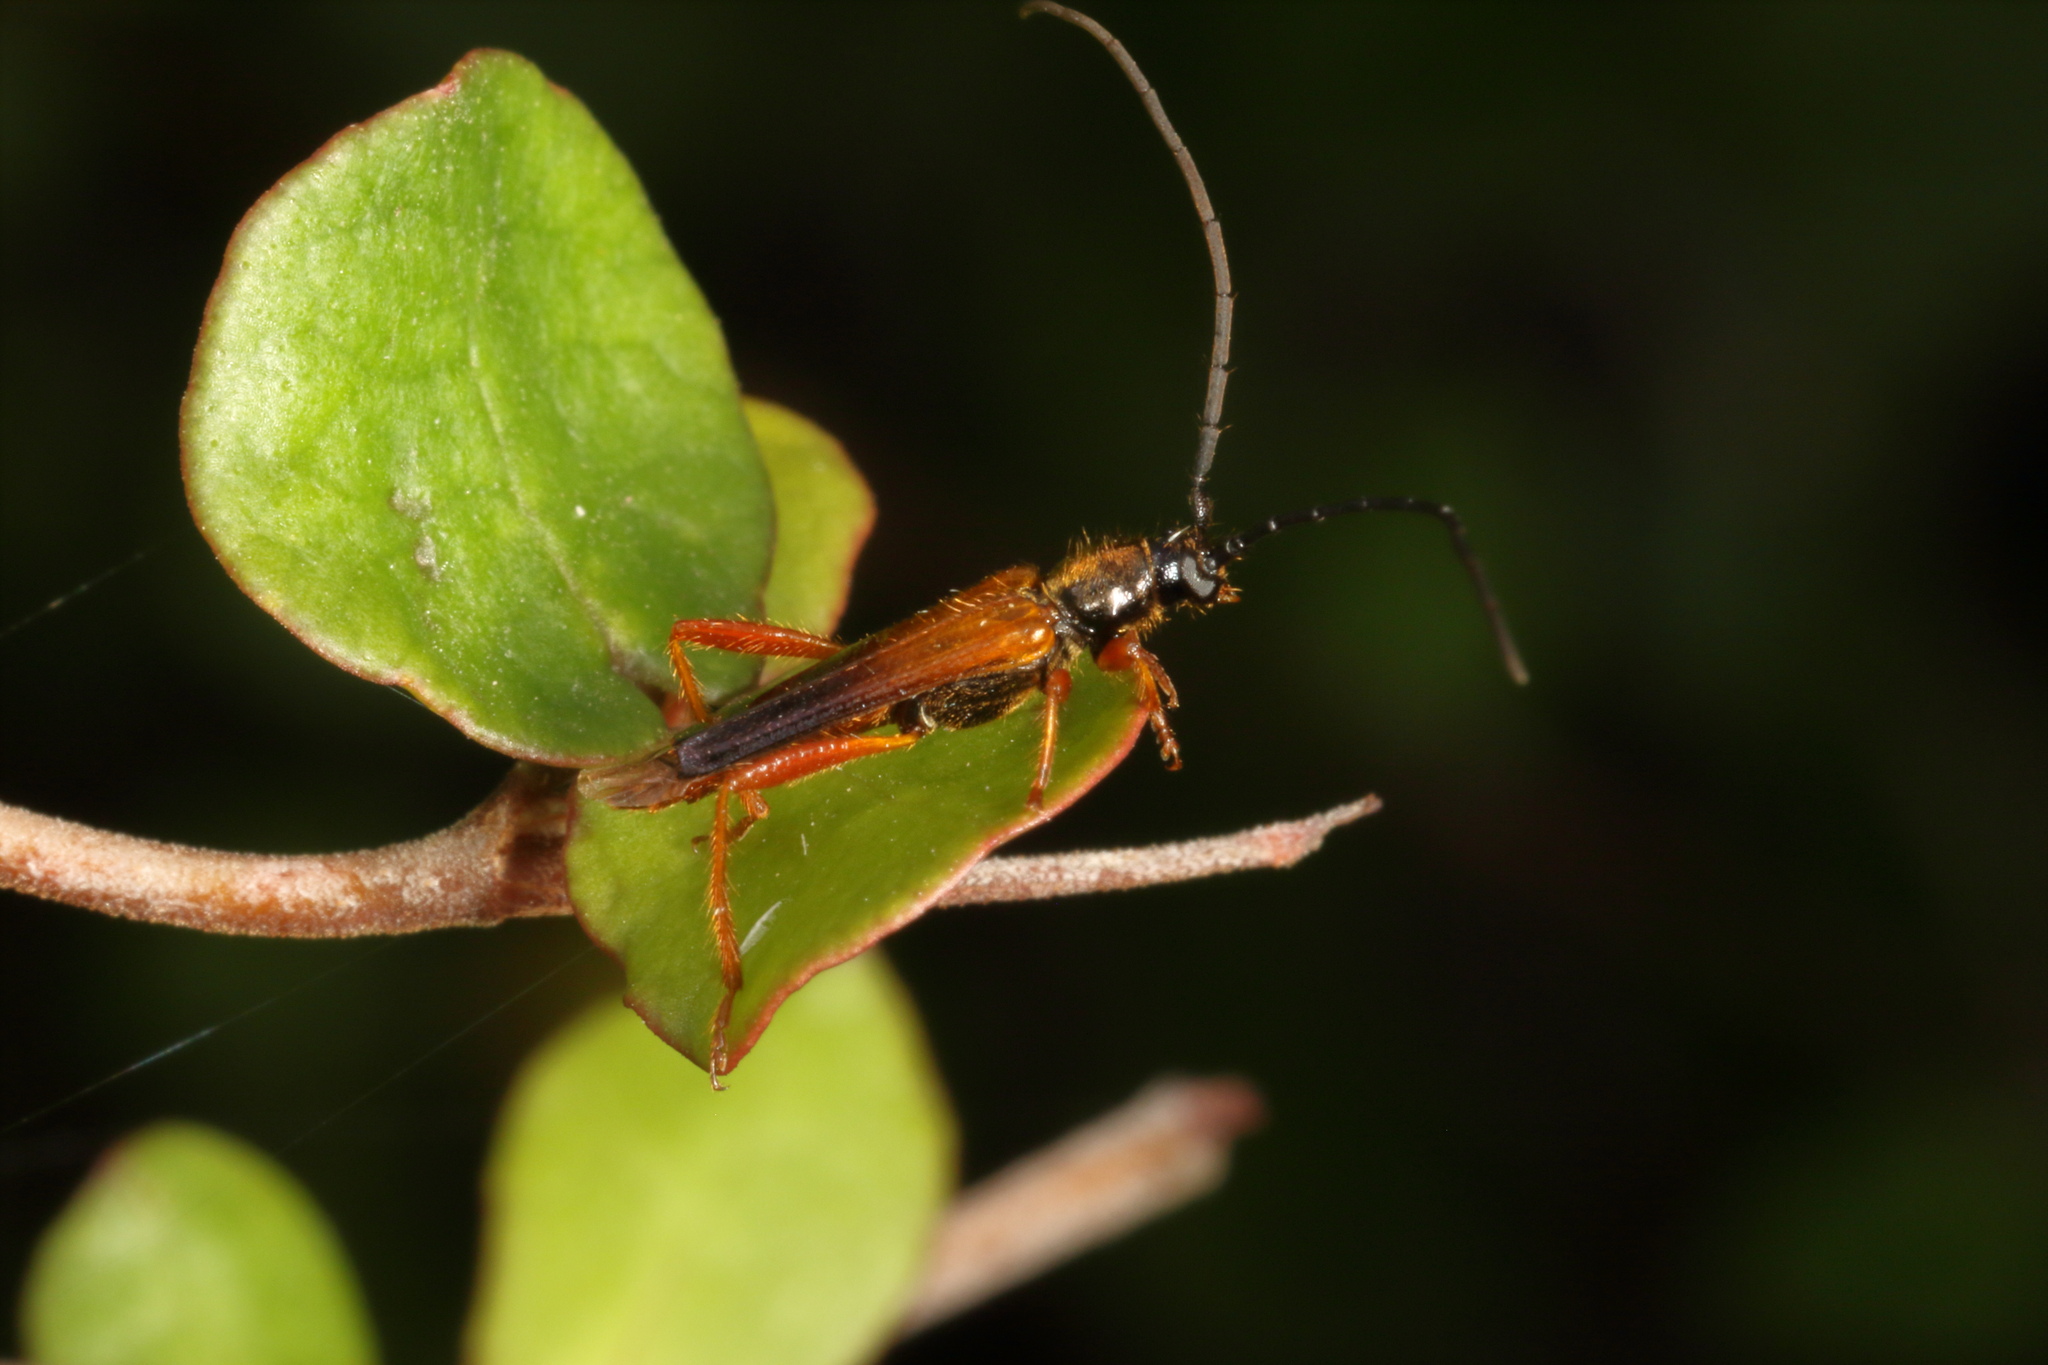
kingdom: Animalia
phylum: Arthropoda
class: Insecta
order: Coleoptera
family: Cerambycidae
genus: Gastrosarus
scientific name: Gastrosarus nigricollis
